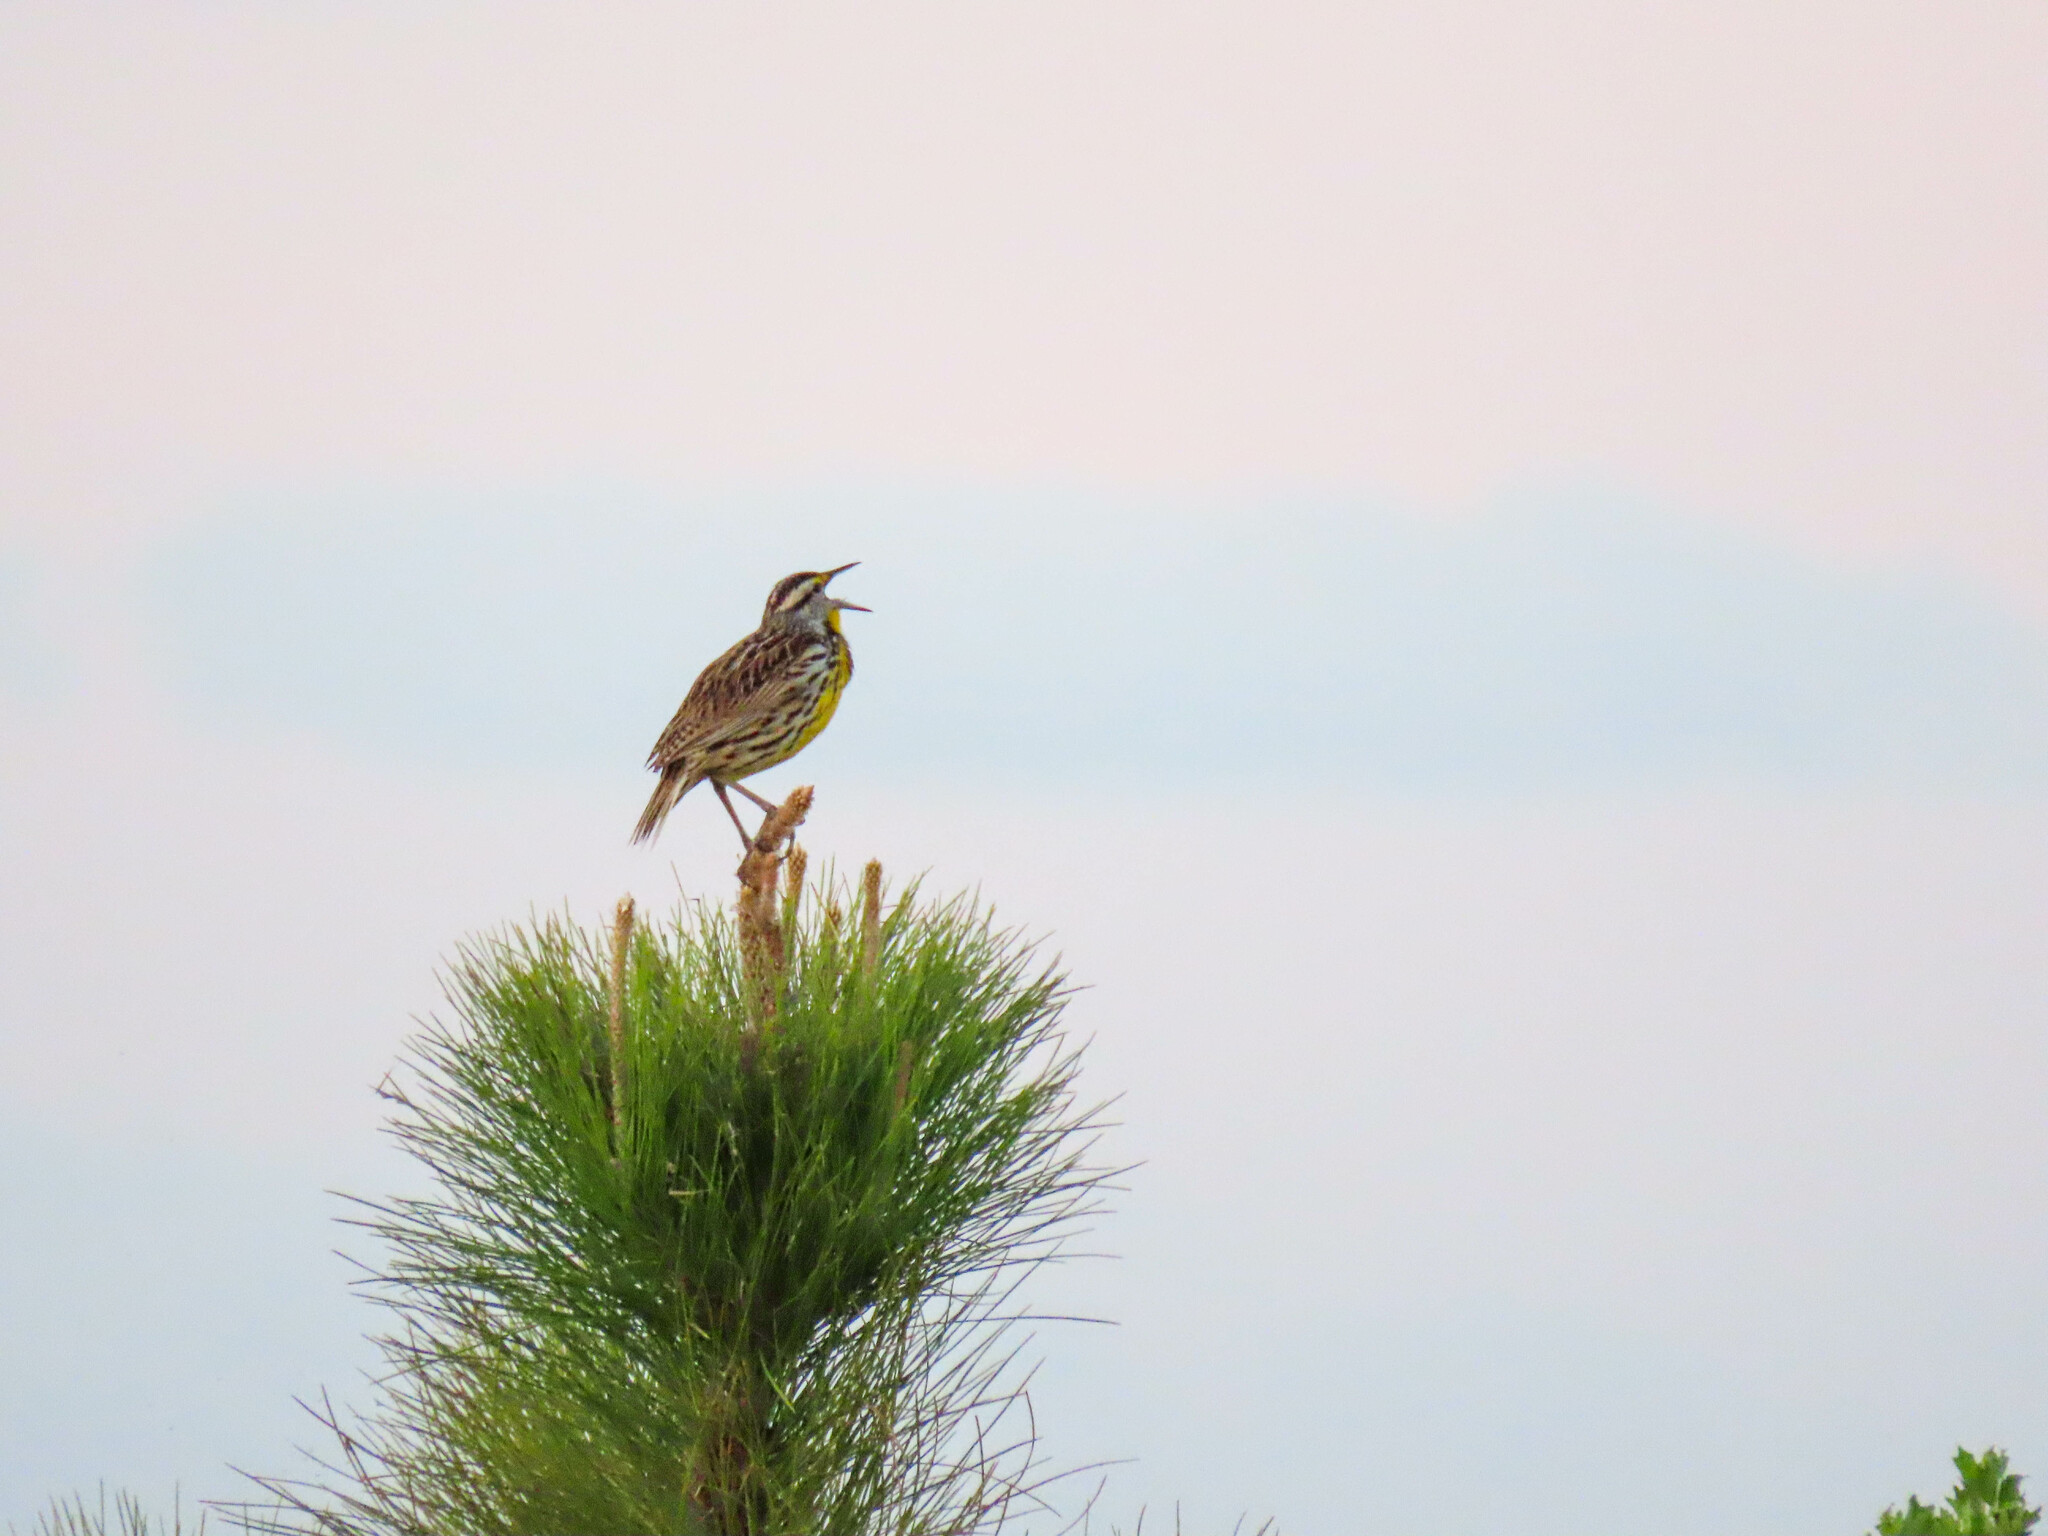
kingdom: Animalia
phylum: Chordata
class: Aves
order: Passeriformes
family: Icteridae
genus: Sturnella
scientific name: Sturnella magna
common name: Eastern meadowlark
